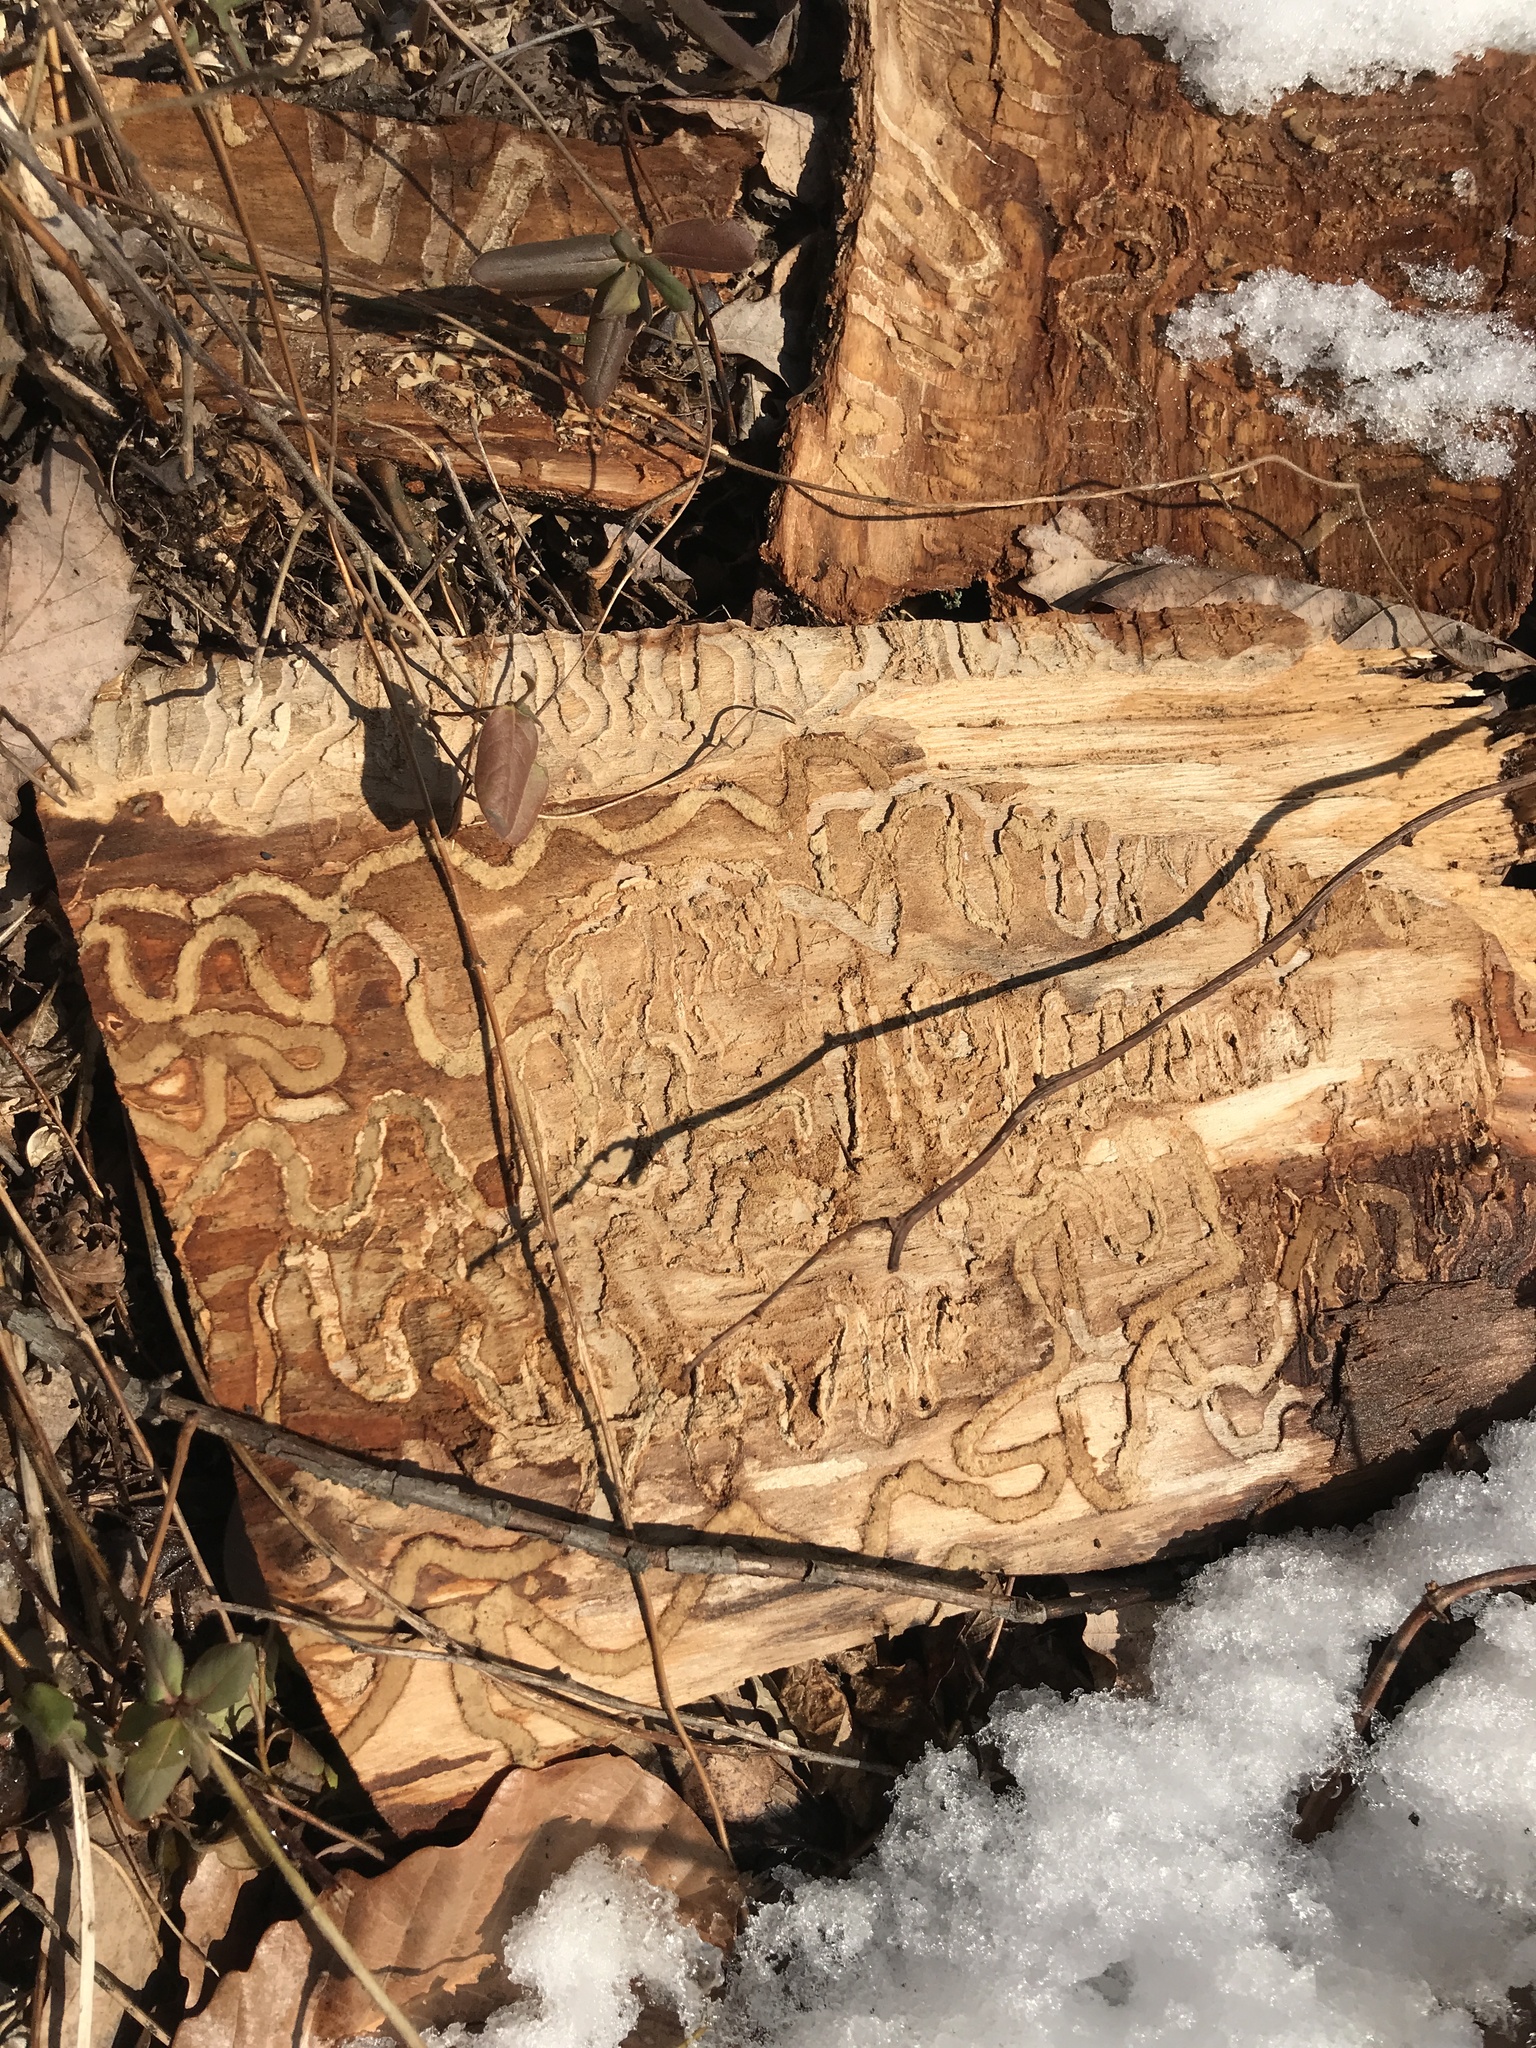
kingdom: Animalia
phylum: Arthropoda
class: Insecta
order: Coleoptera
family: Buprestidae
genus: Agrilus
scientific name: Agrilus planipennis
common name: Emerald ash borer
